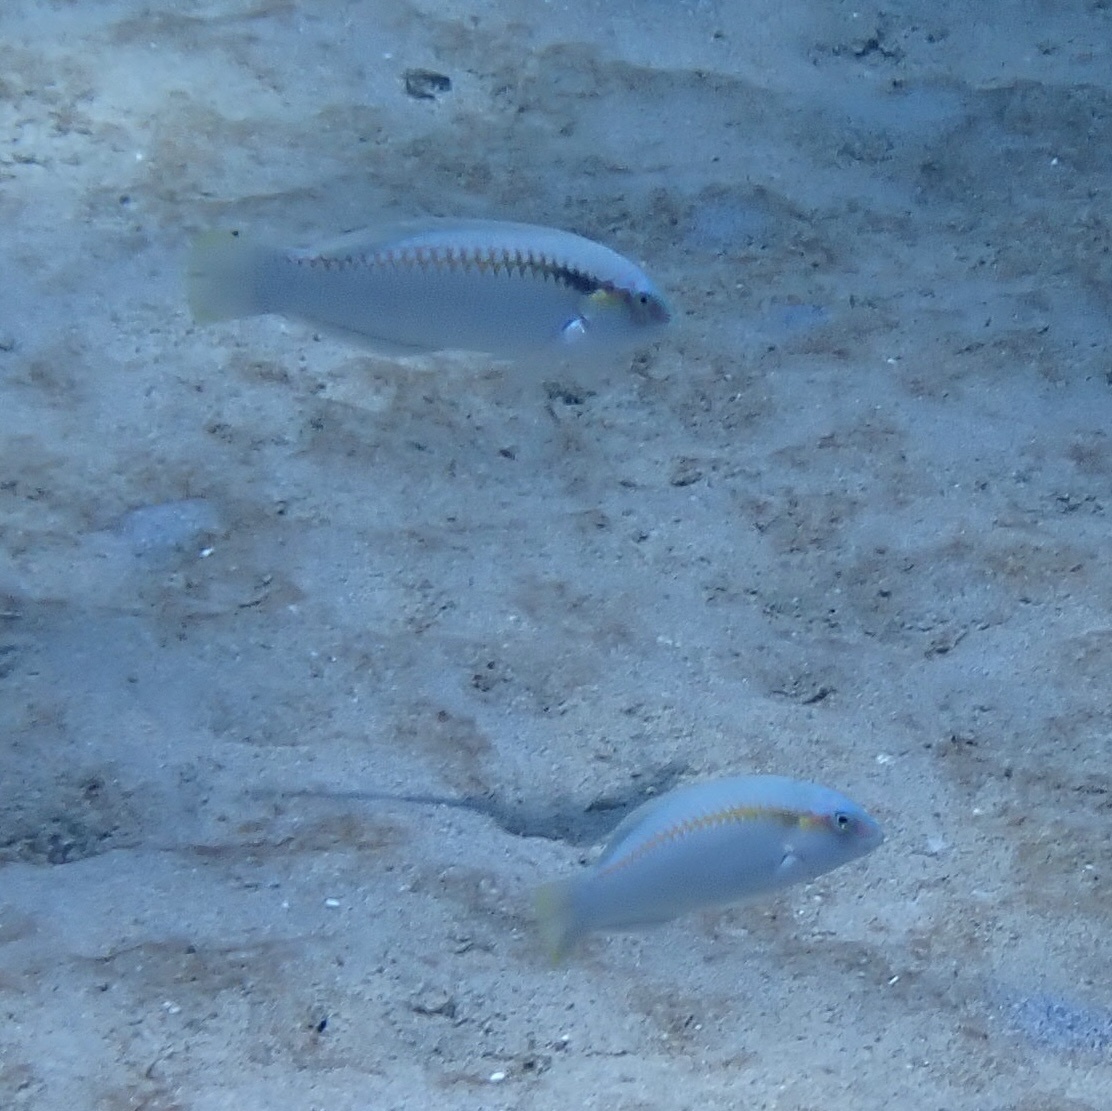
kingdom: Animalia
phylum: Chordata
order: Perciformes
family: Labridae
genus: Halichoeres
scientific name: Halichoeres scapularis
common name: Brownbanded wrasse
